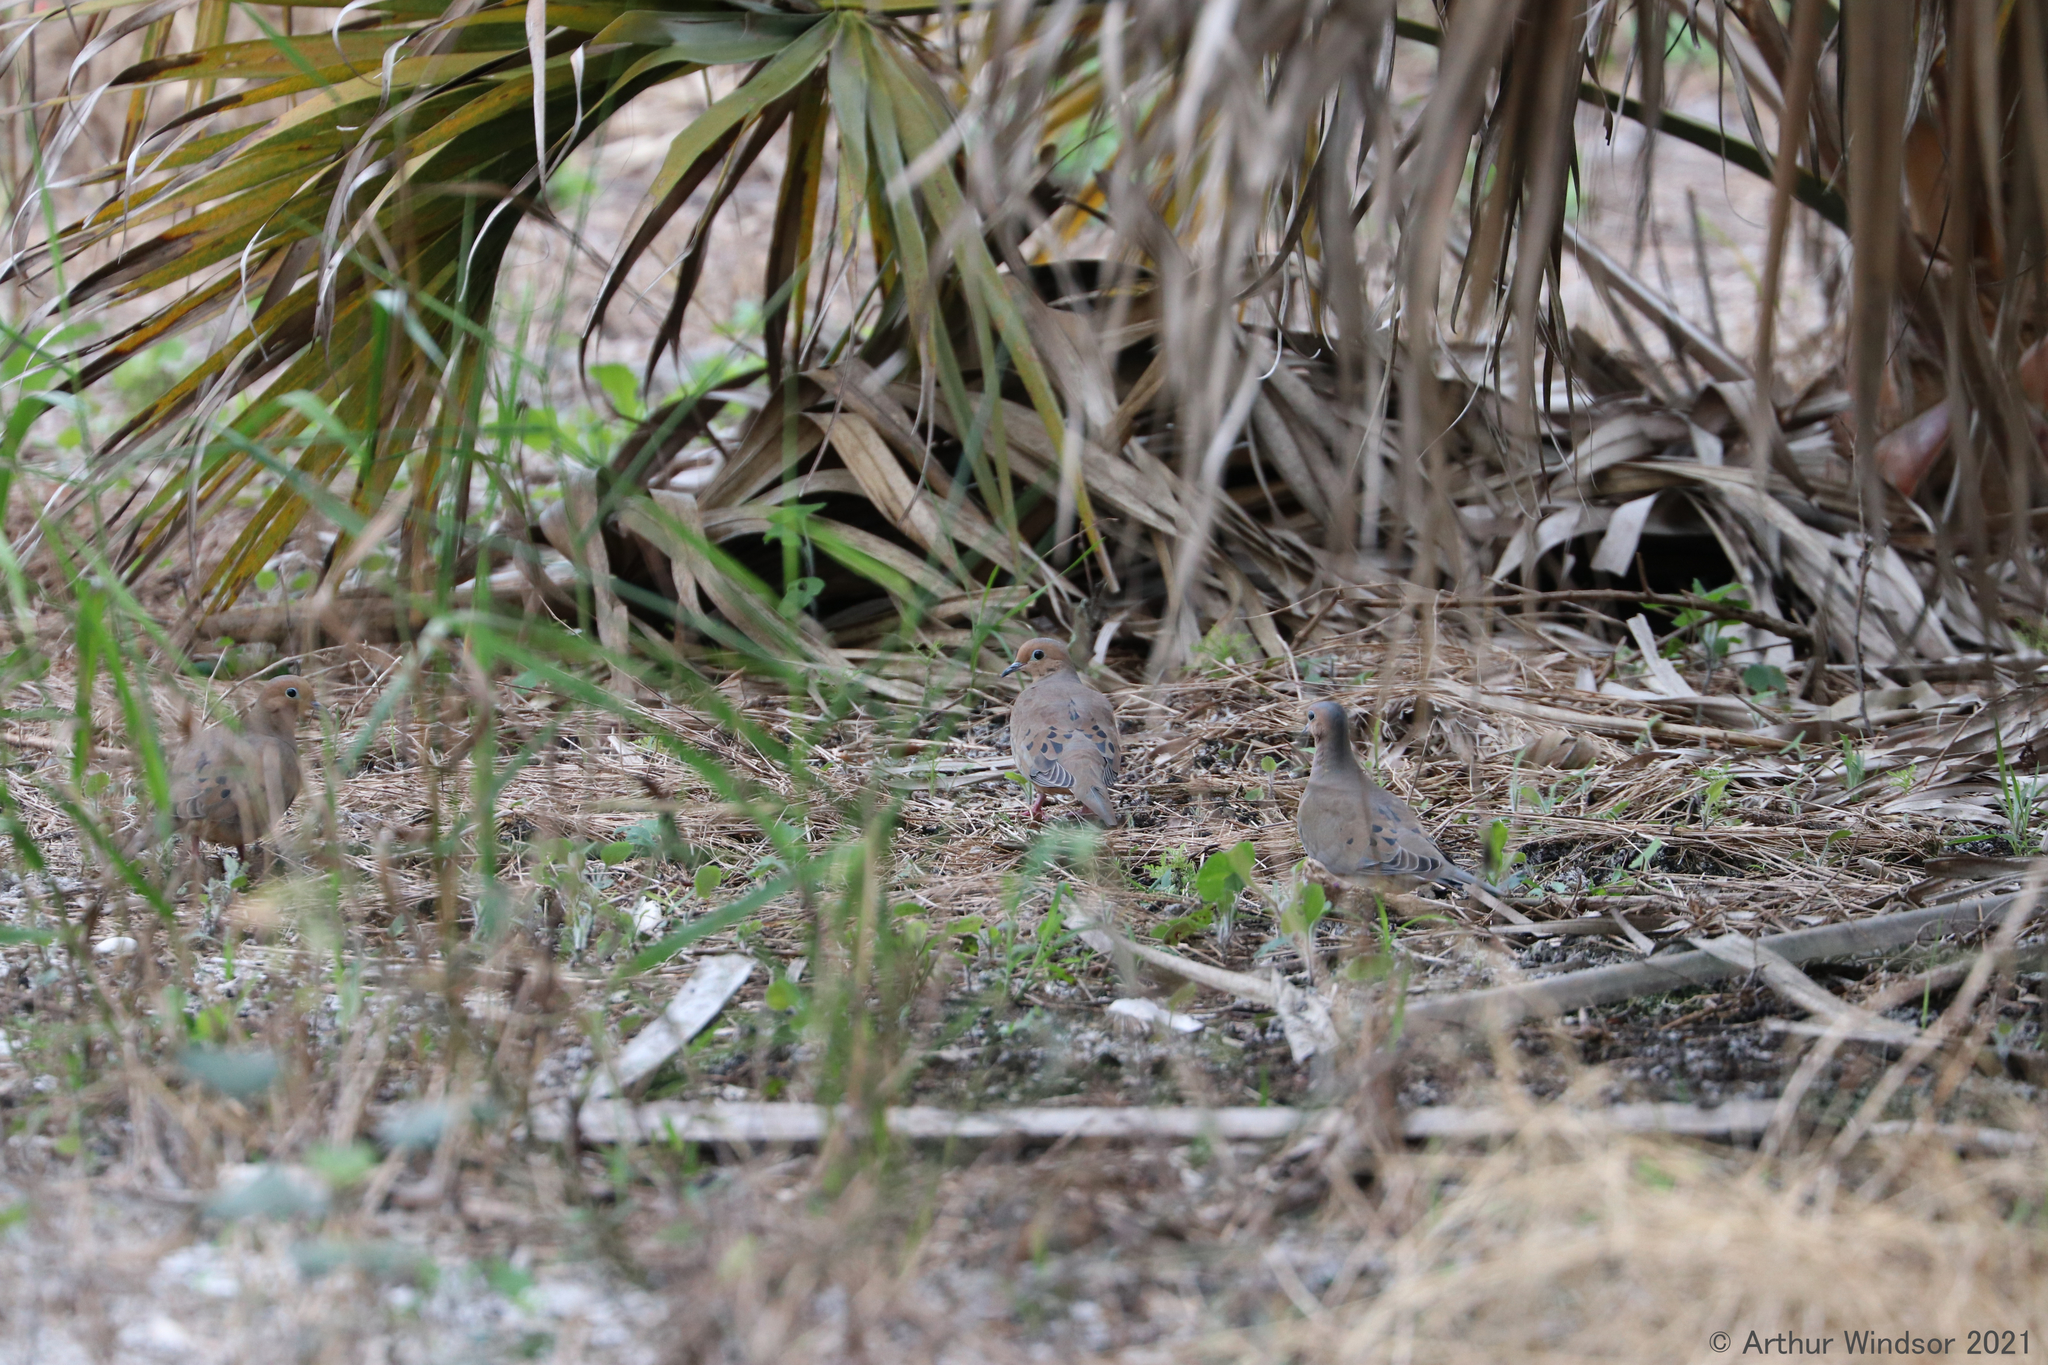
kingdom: Animalia
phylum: Chordata
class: Aves
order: Columbiformes
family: Columbidae
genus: Zenaida
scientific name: Zenaida macroura
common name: Mourning dove
